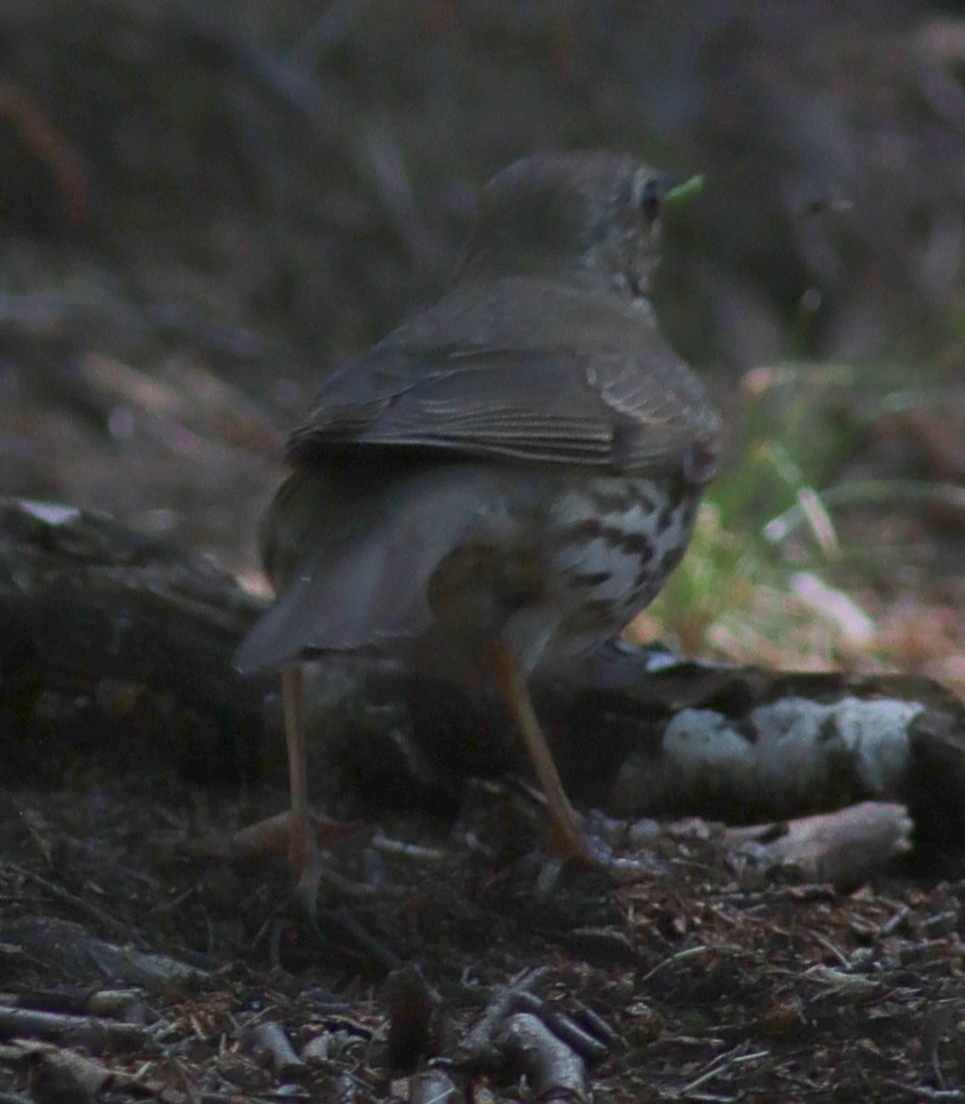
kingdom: Animalia
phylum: Chordata
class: Aves
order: Passeriformes
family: Turdidae
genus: Turdus
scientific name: Turdus philomelos
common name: Song thrush
